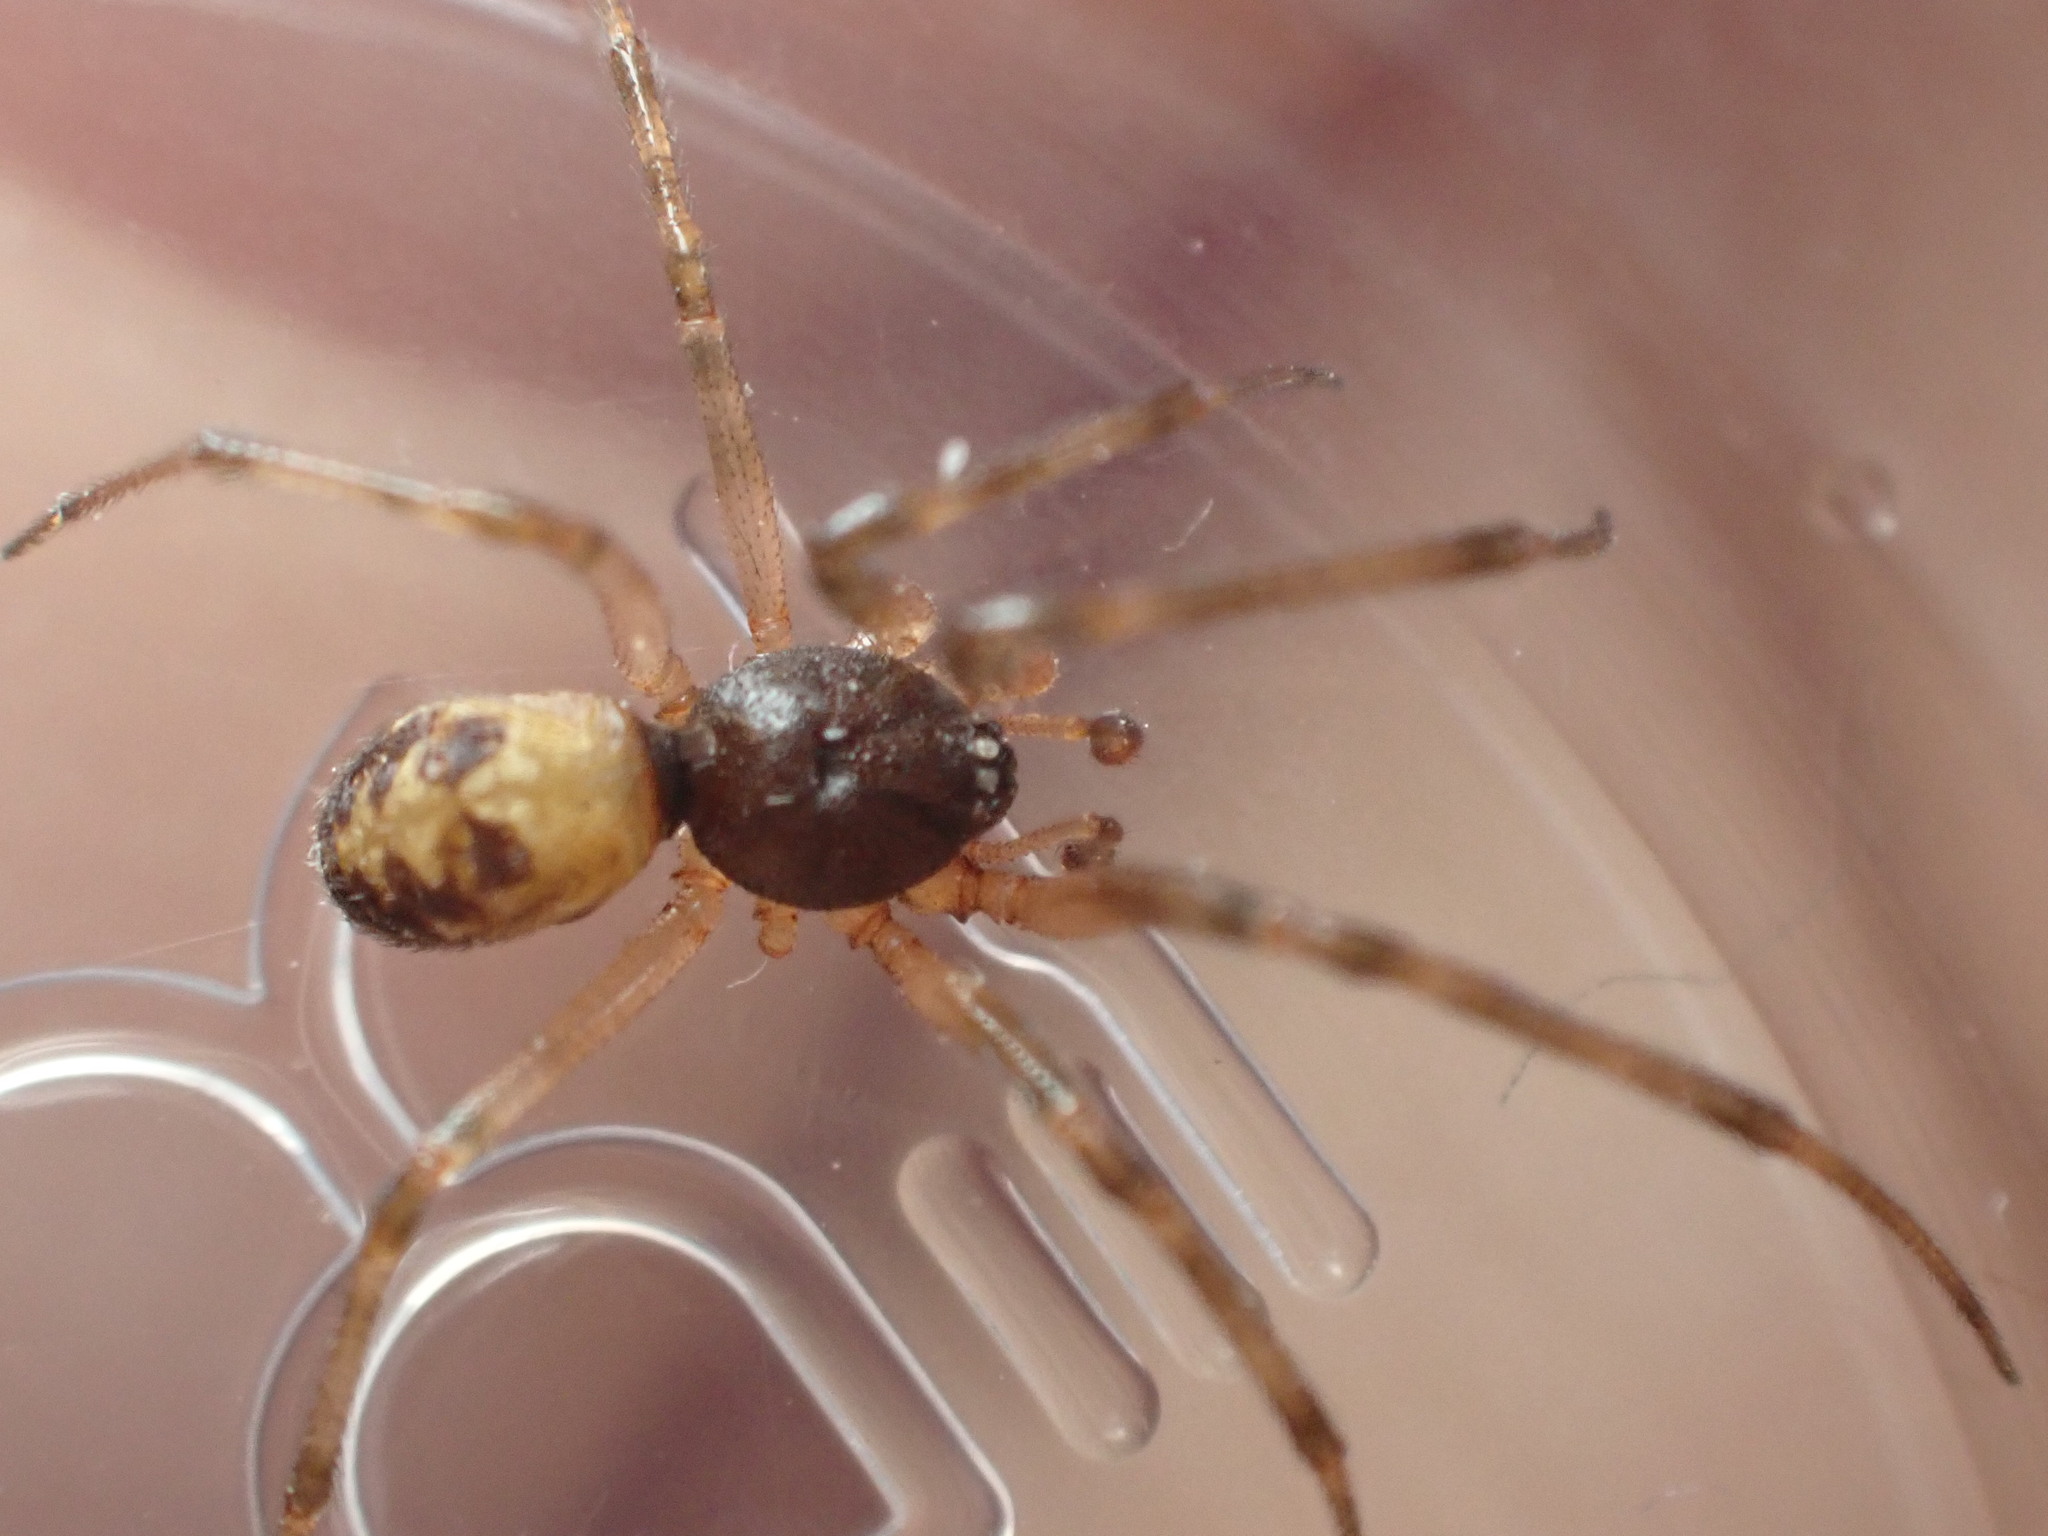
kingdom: Animalia
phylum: Arthropoda
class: Arachnida
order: Araneae
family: Theridiidae
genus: Steatoda
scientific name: Steatoda triangulosa
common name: Triangulate bud spider
